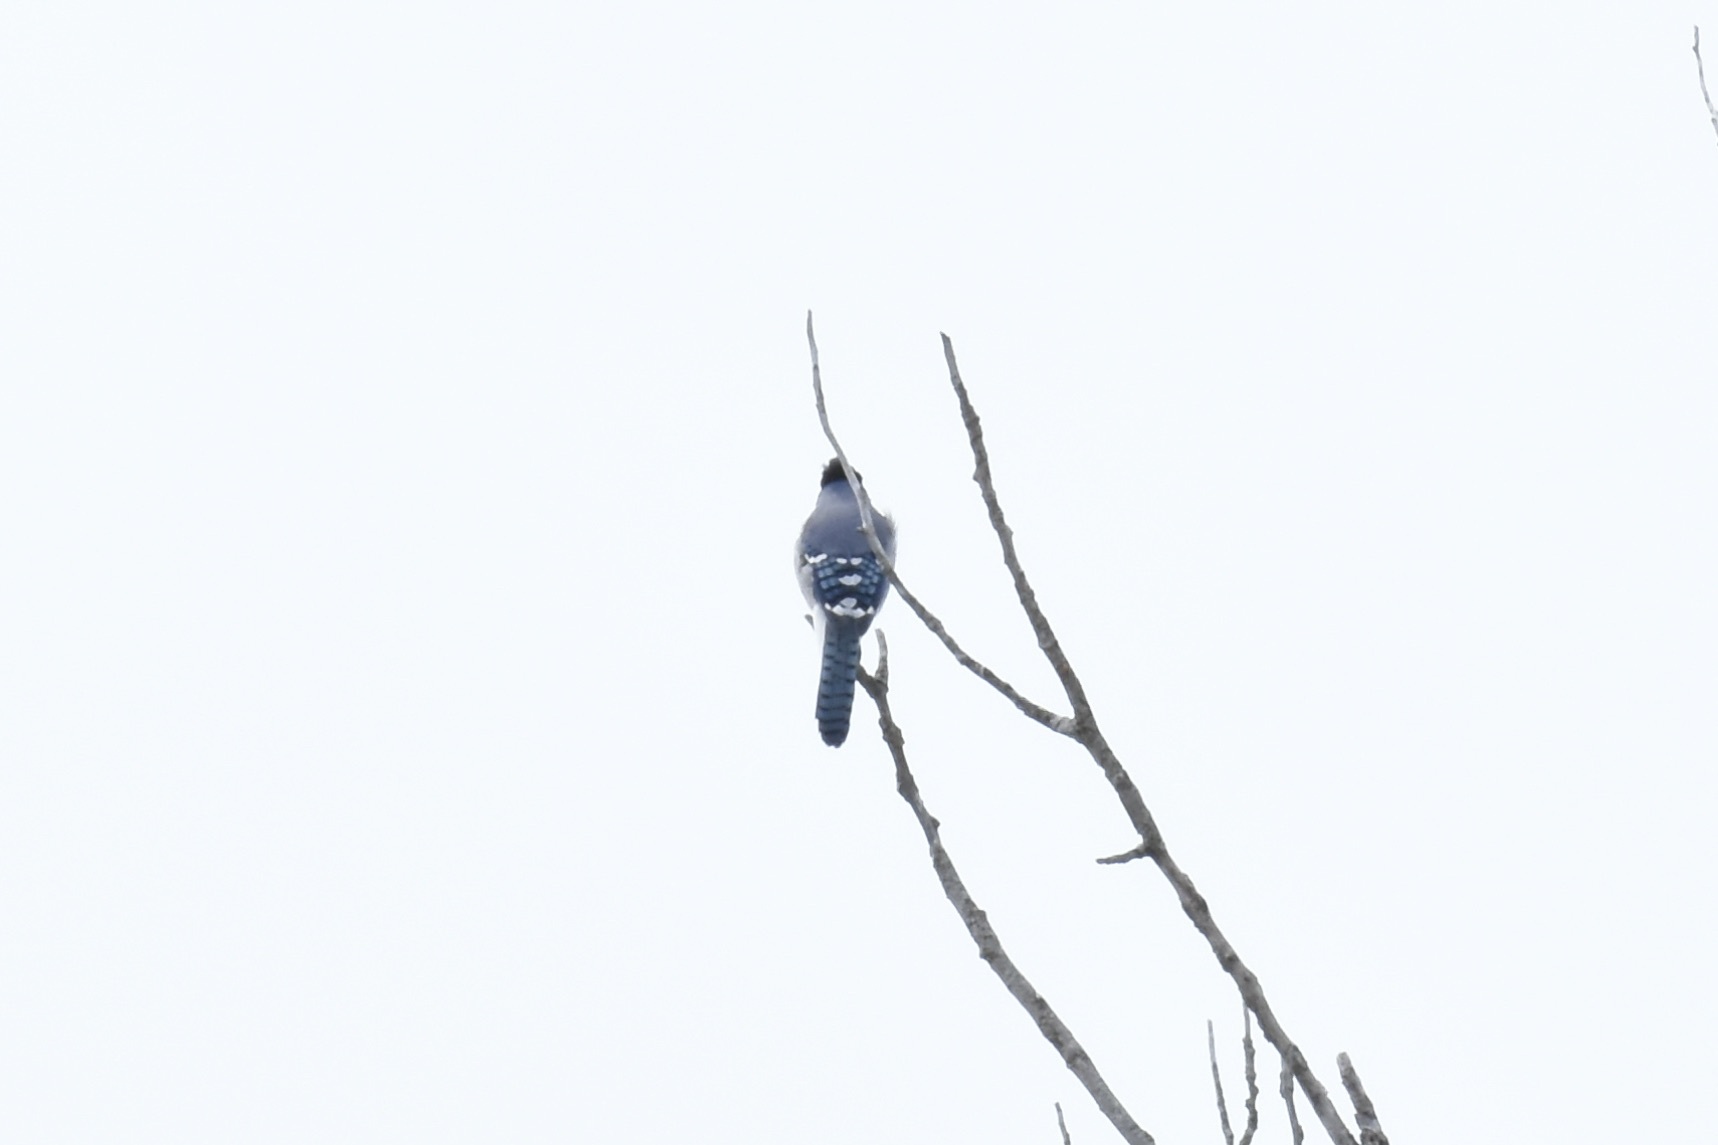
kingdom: Animalia
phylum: Chordata
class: Aves
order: Passeriformes
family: Corvidae
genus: Cyanocitta
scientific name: Cyanocitta cristata
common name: Blue jay
